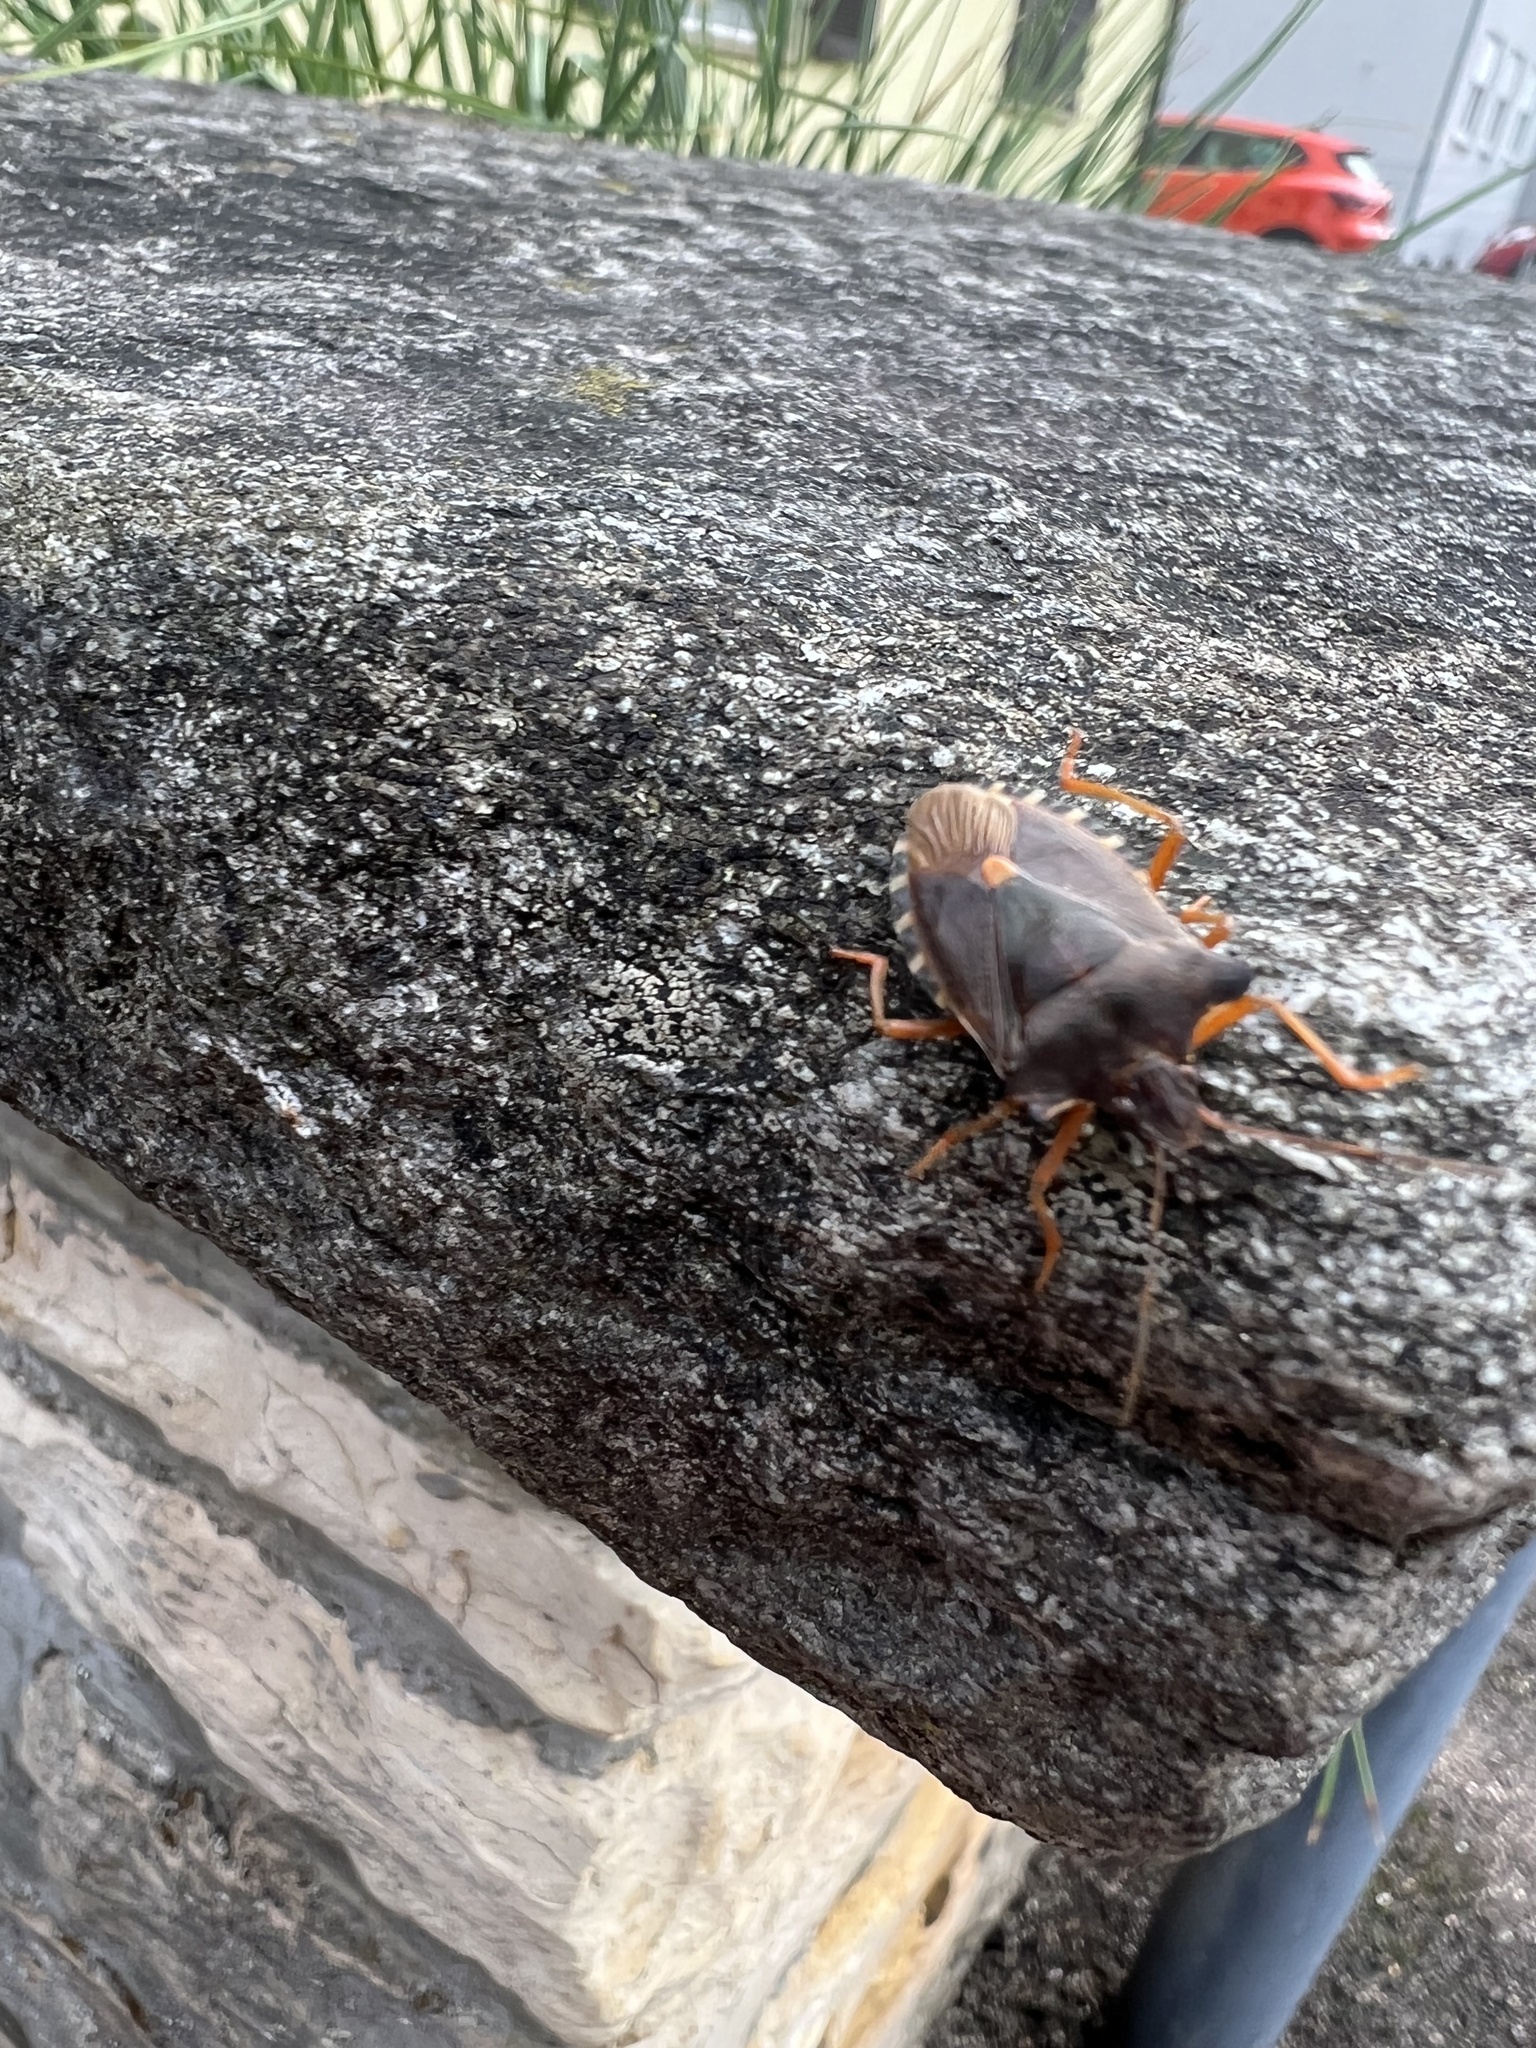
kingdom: Animalia
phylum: Arthropoda
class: Insecta
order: Hemiptera
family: Pentatomidae
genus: Pentatoma
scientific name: Pentatoma rufipes
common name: Forest bug
